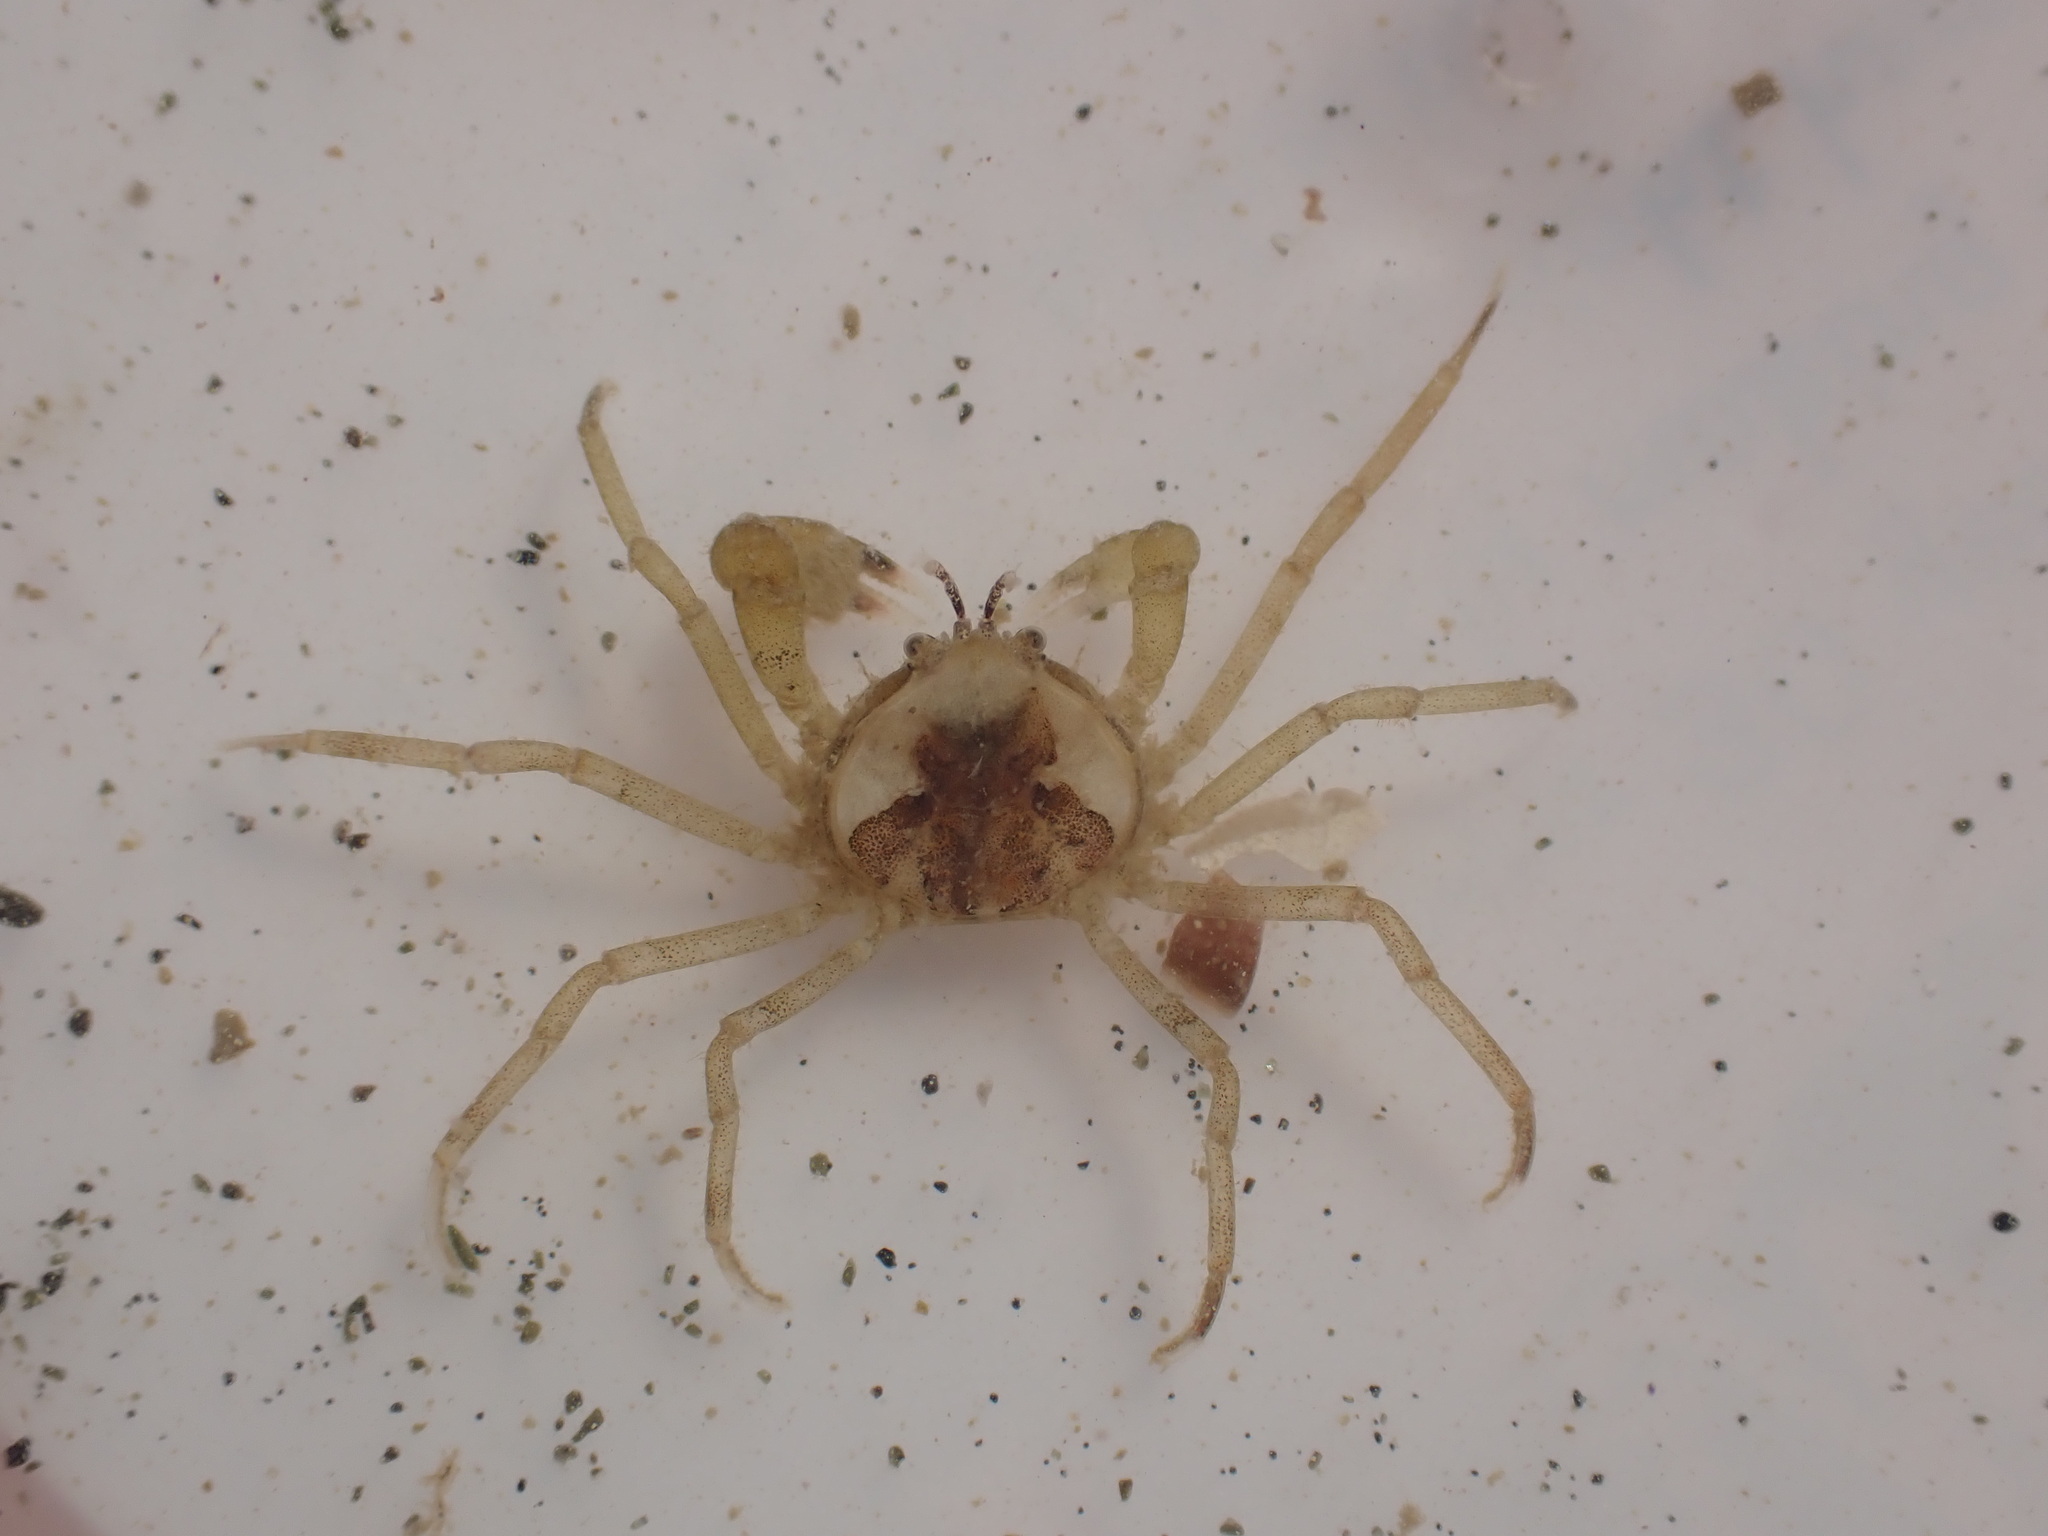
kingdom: Animalia
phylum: Arthropoda
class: Malacostraca
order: Decapoda
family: Hymenosomatidae
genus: Halicarcinus
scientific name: Halicarcinus quoyi
